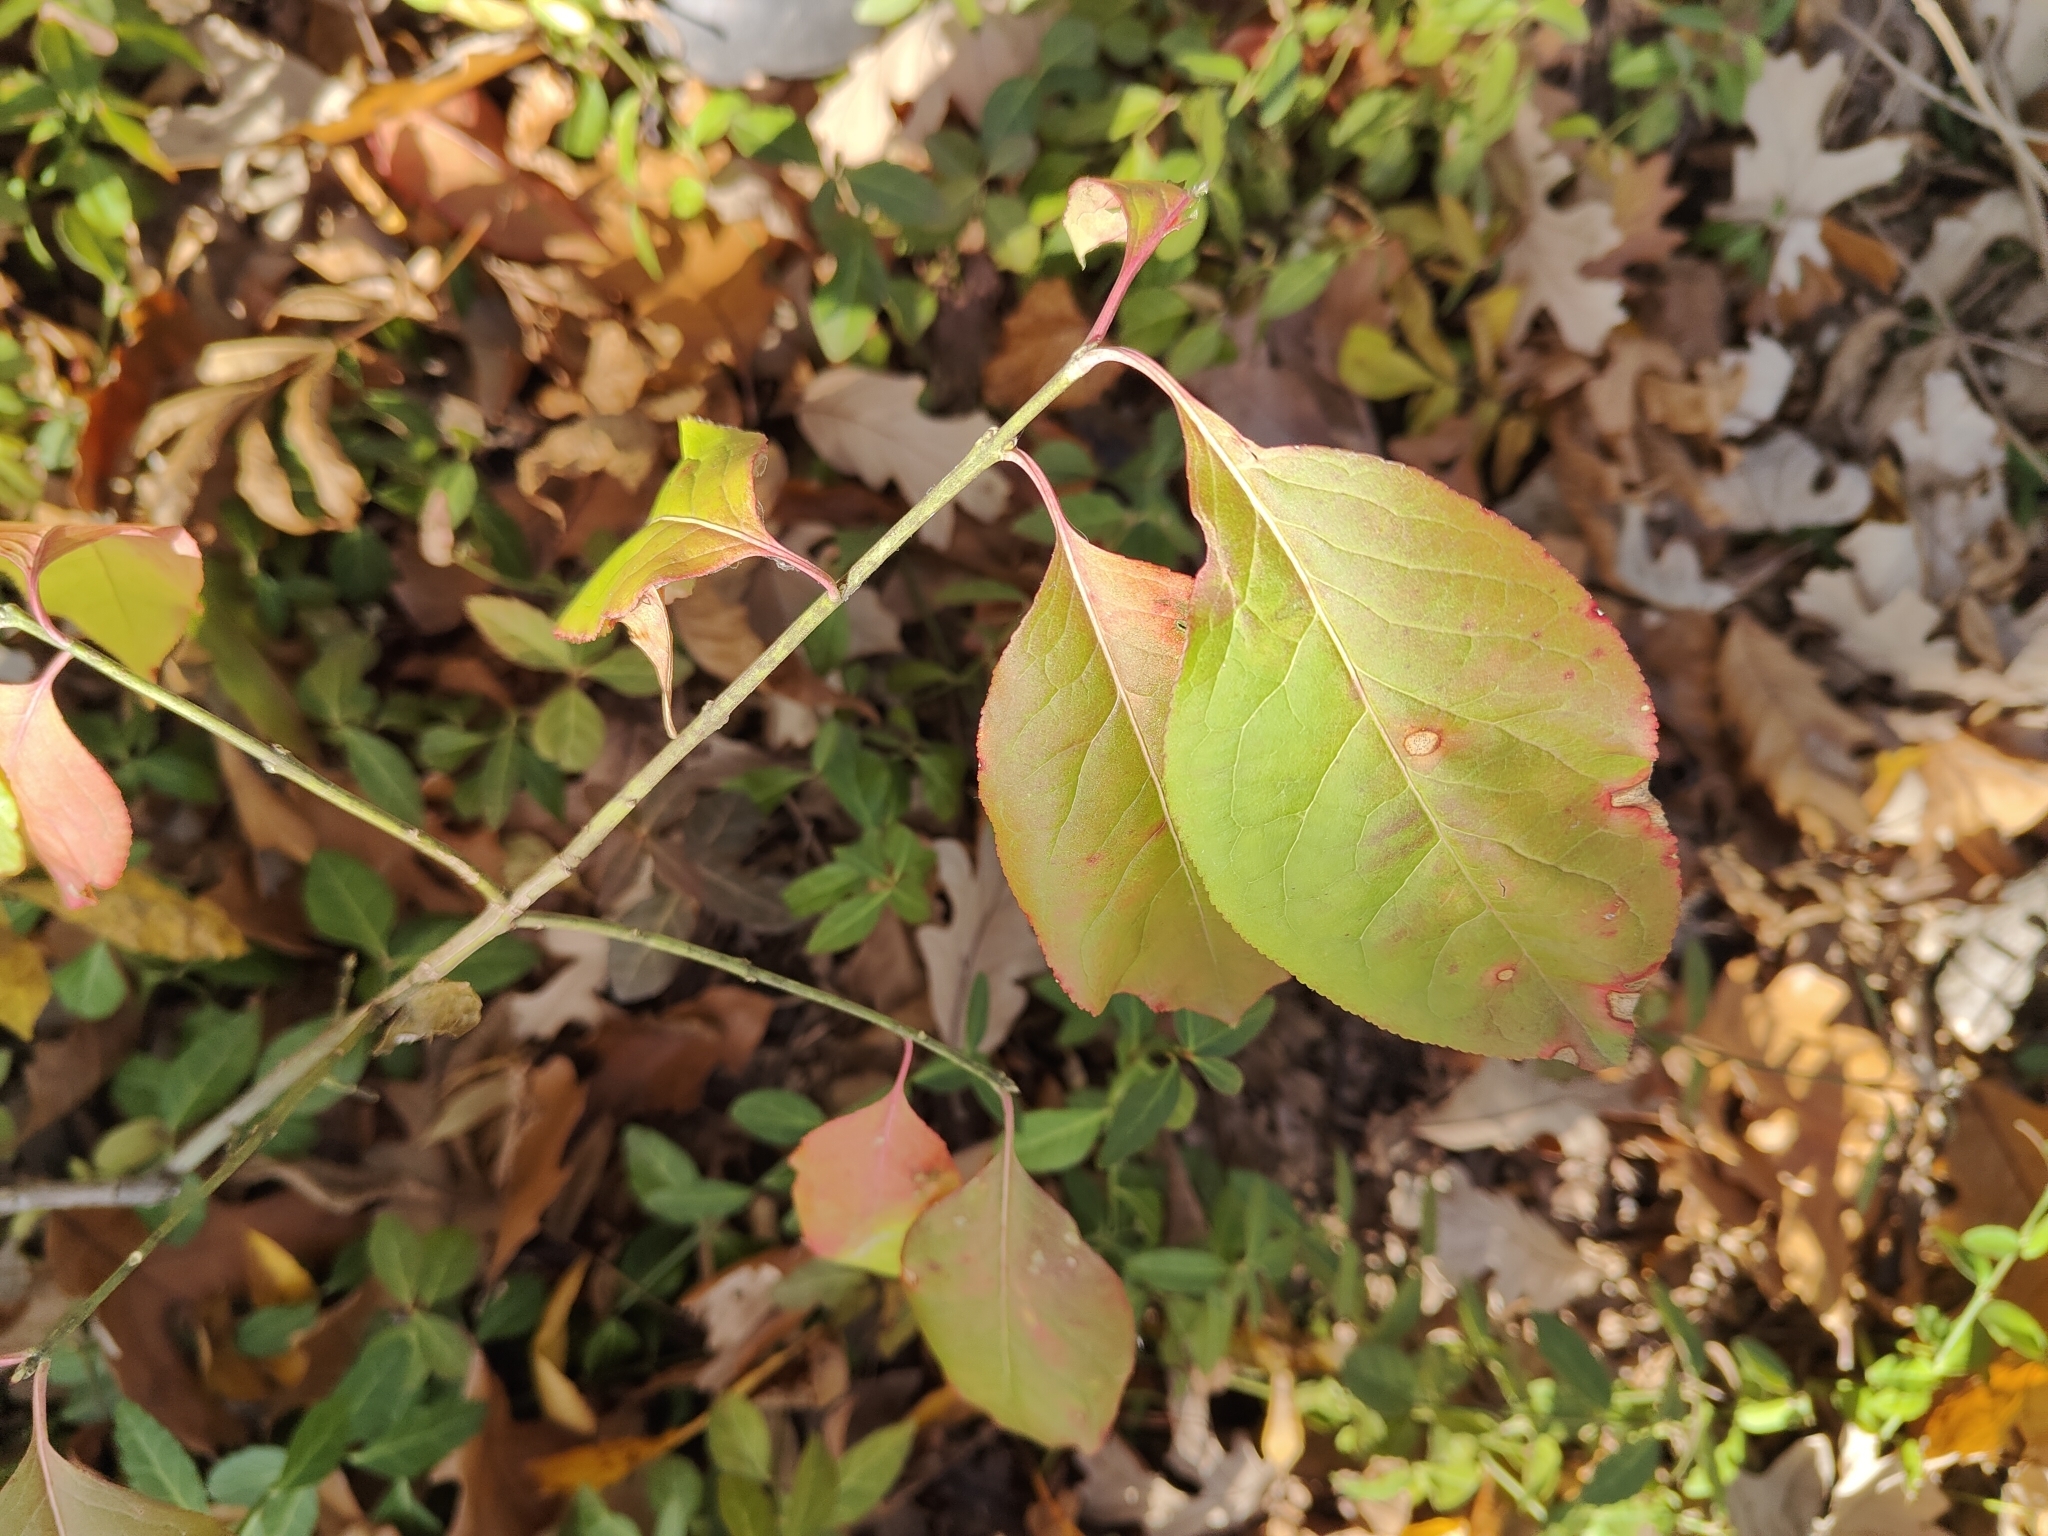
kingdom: Plantae
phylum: Tracheophyta
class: Magnoliopsida
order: Celastrales
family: Celastraceae
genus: Euonymus
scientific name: Euonymus atropurpureus
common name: Eastern wahoo
